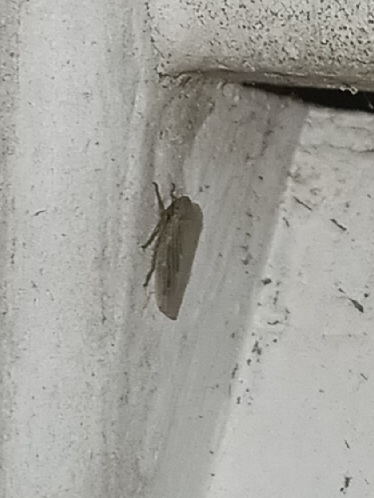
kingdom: Animalia
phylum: Arthropoda
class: Insecta
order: Hemiptera
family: Cicadellidae
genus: Graminella
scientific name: Graminella nigrifrons
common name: Blackfaced leafhopper
